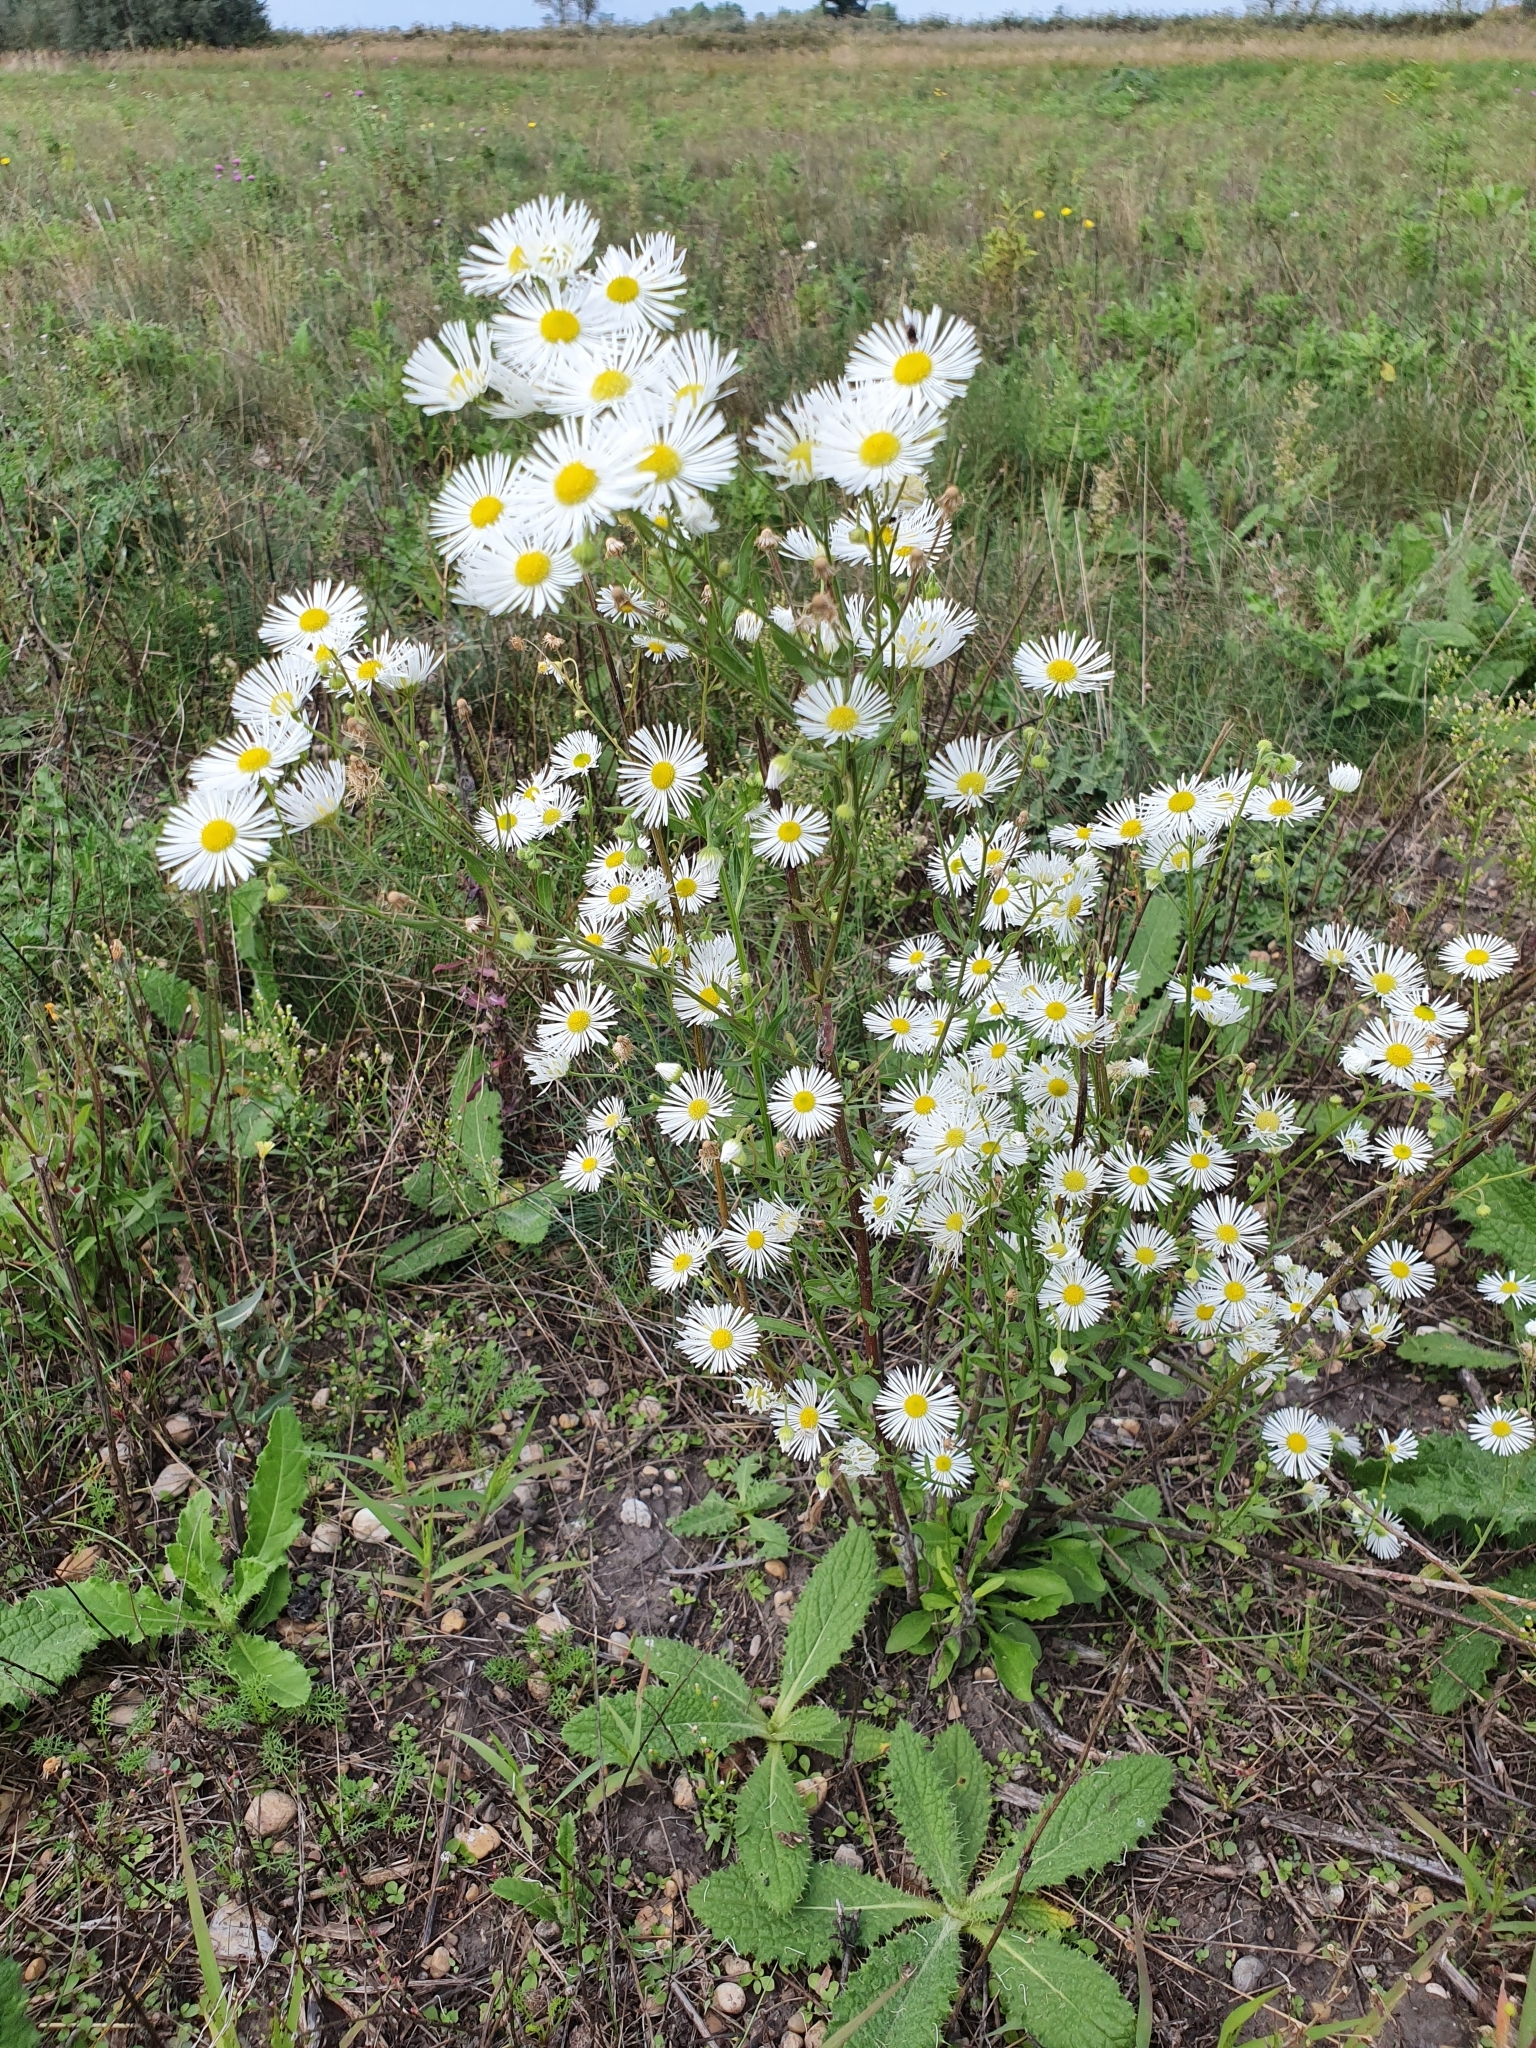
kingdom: Plantae
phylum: Tracheophyta
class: Magnoliopsida
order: Asterales
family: Asteraceae
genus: Erigeron
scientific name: Erigeron annuus
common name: Tall fleabane
